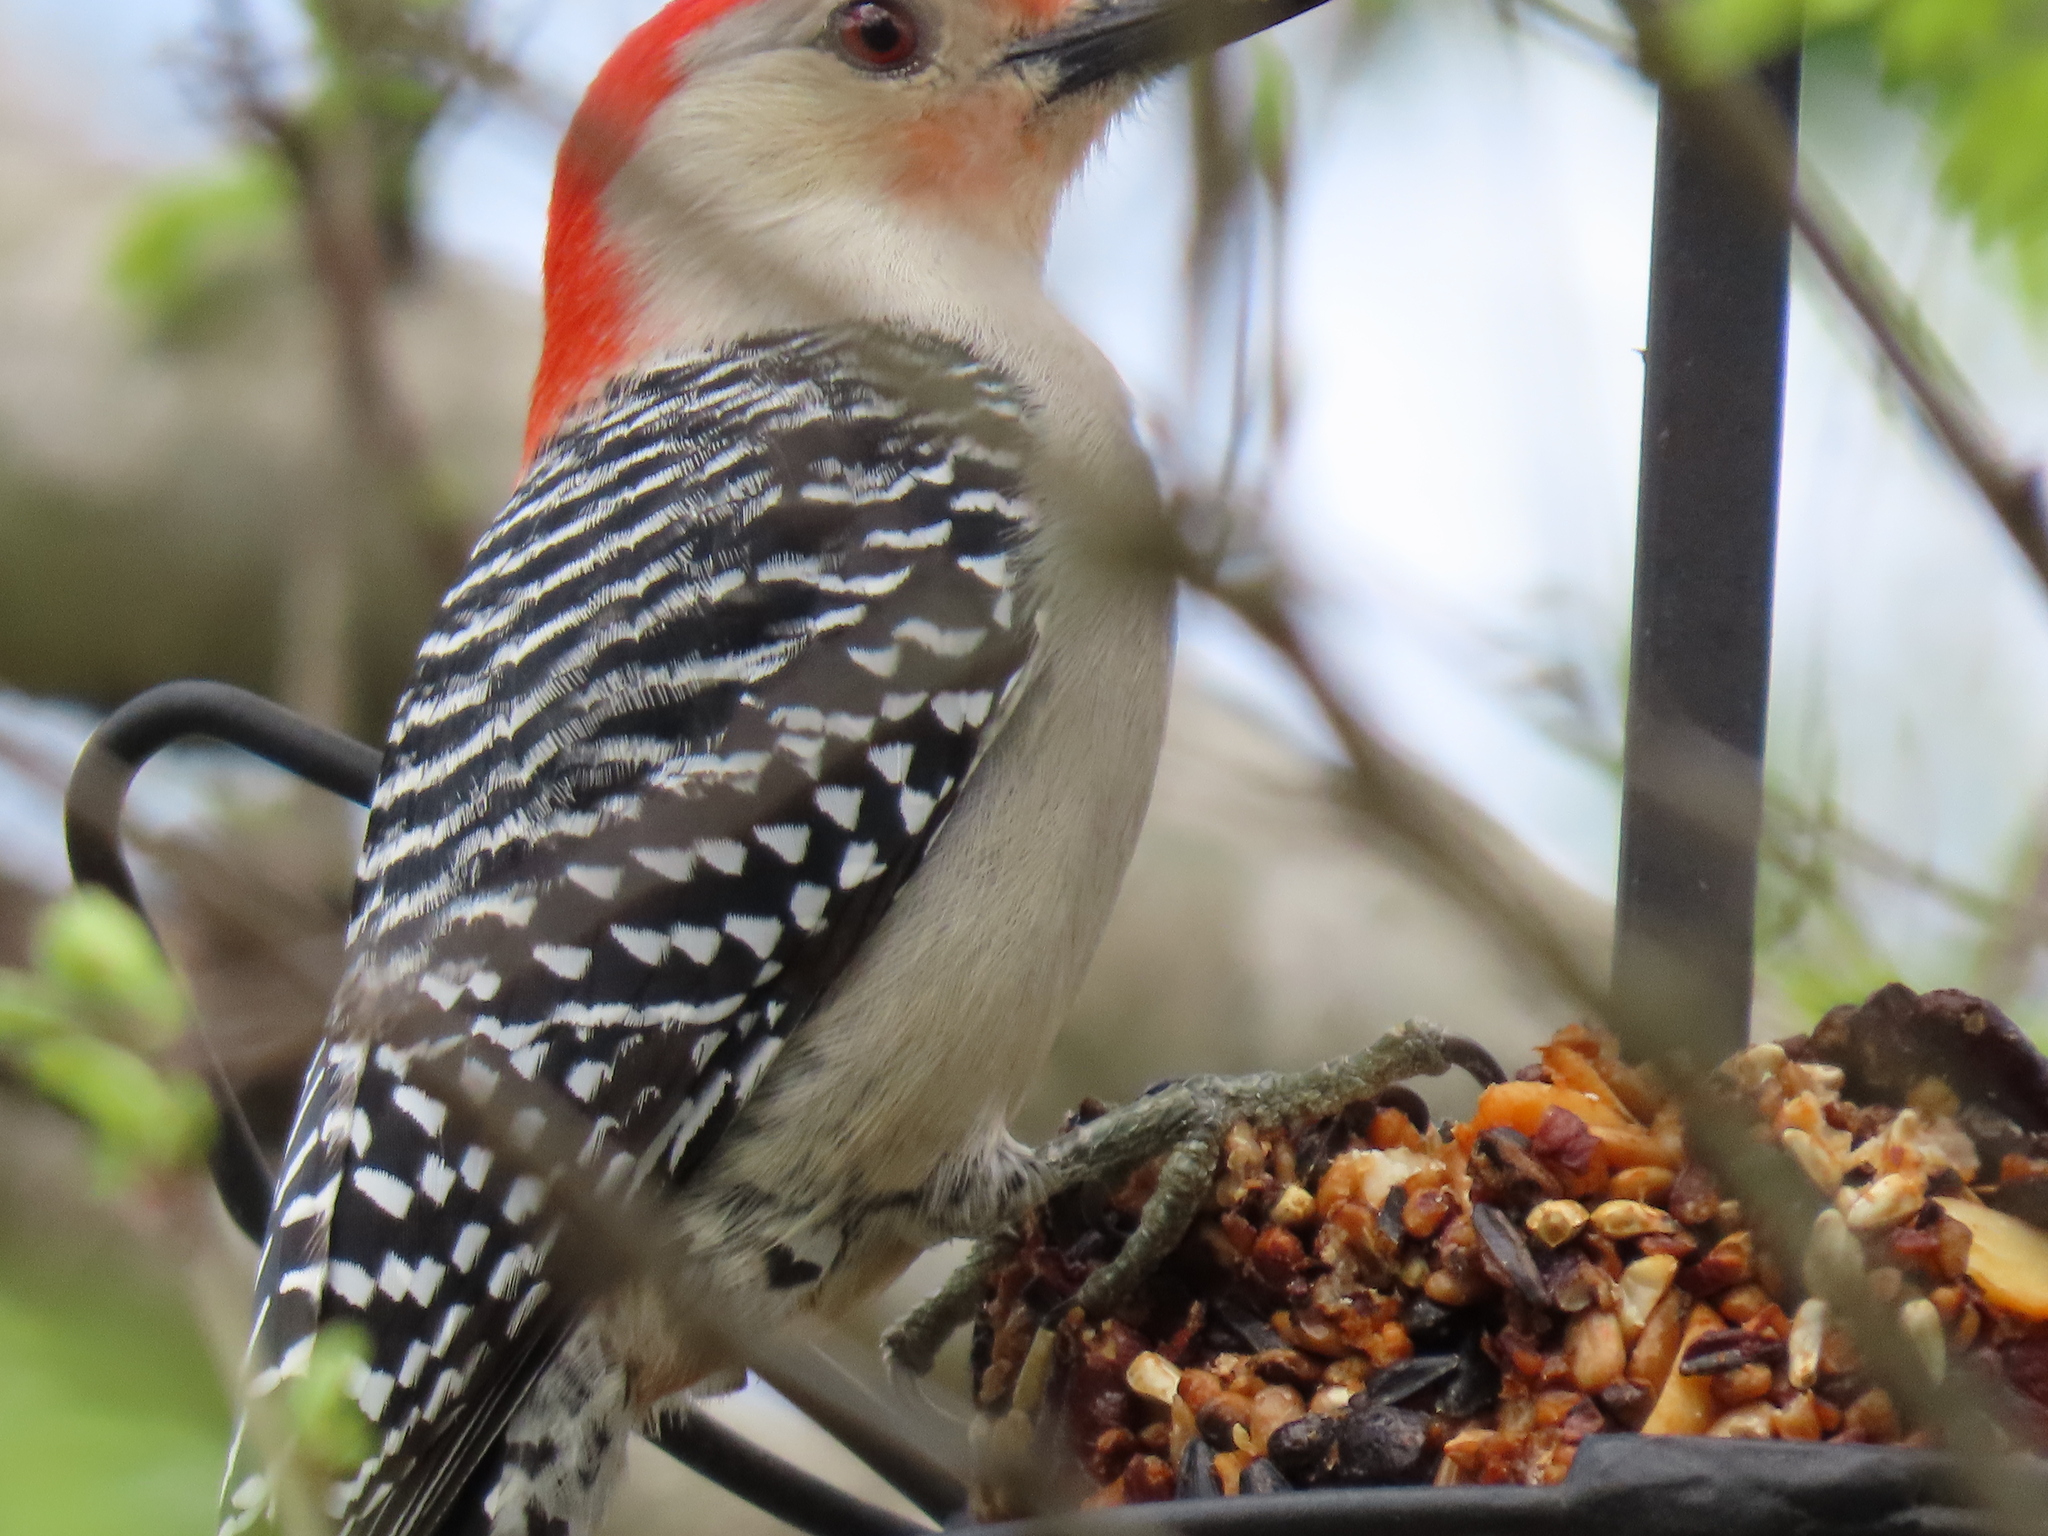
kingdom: Animalia
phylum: Chordata
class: Aves
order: Piciformes
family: Picidae
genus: Melanerpes
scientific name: Melanerpes carolinus
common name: Red-bellied woodpecker
